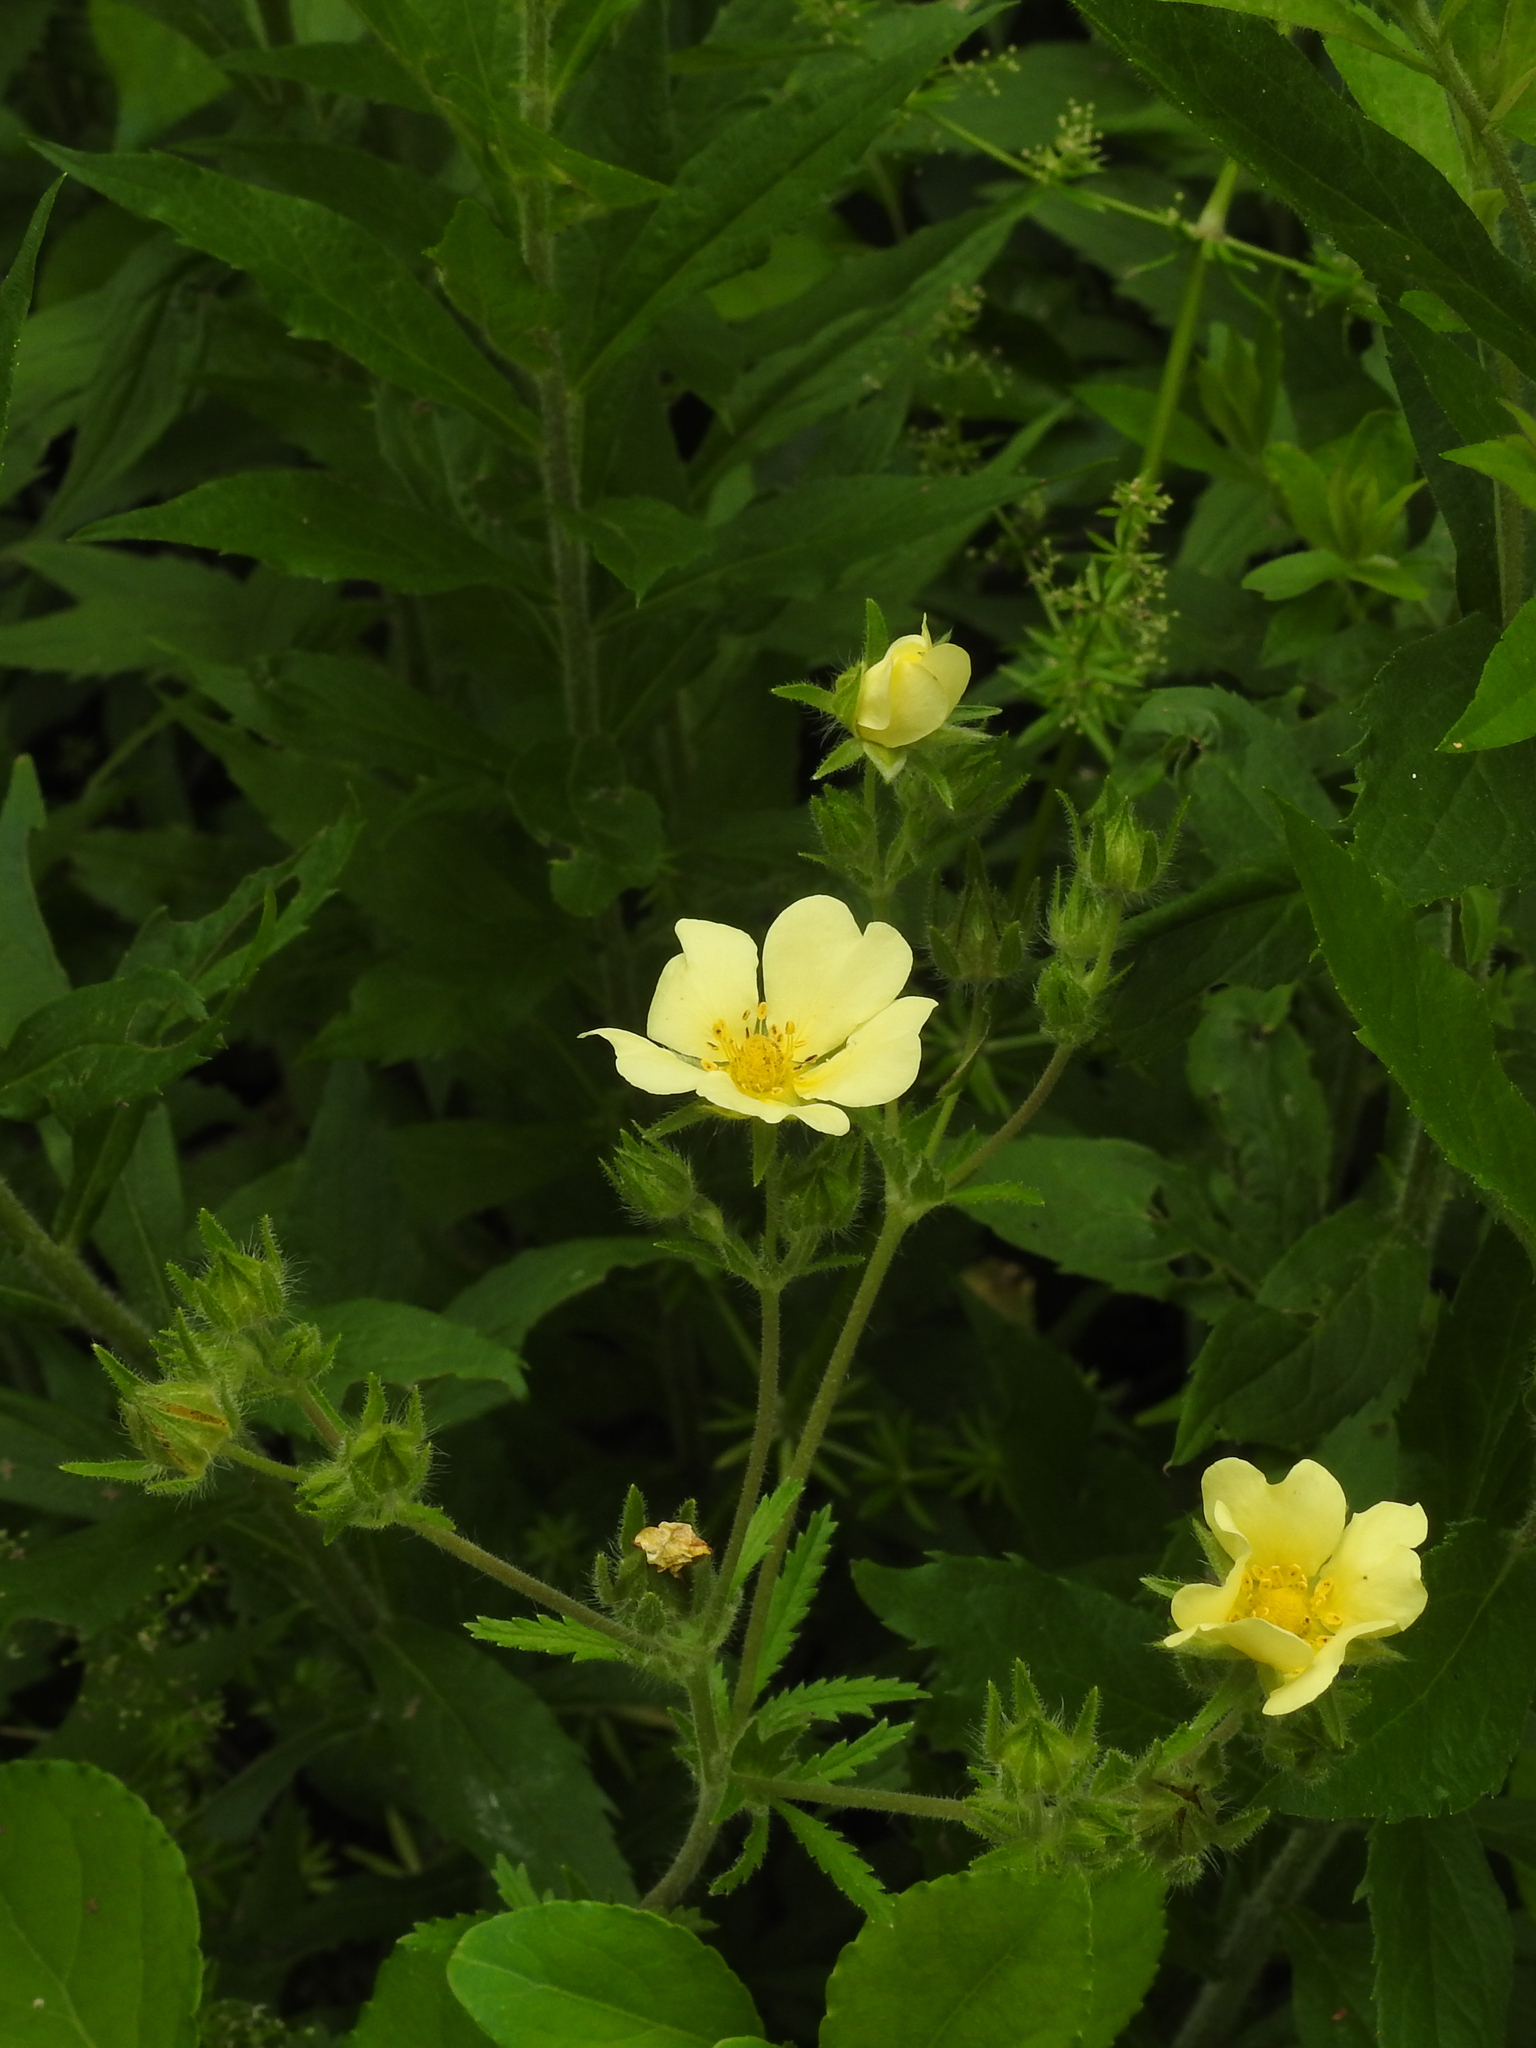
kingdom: Plantae
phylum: Tracheophyta
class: Magnoliopsida
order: Rosales
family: Rosaceae
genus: Potentilla
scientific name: Potentilla recta
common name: Sulphur cinquefoil
